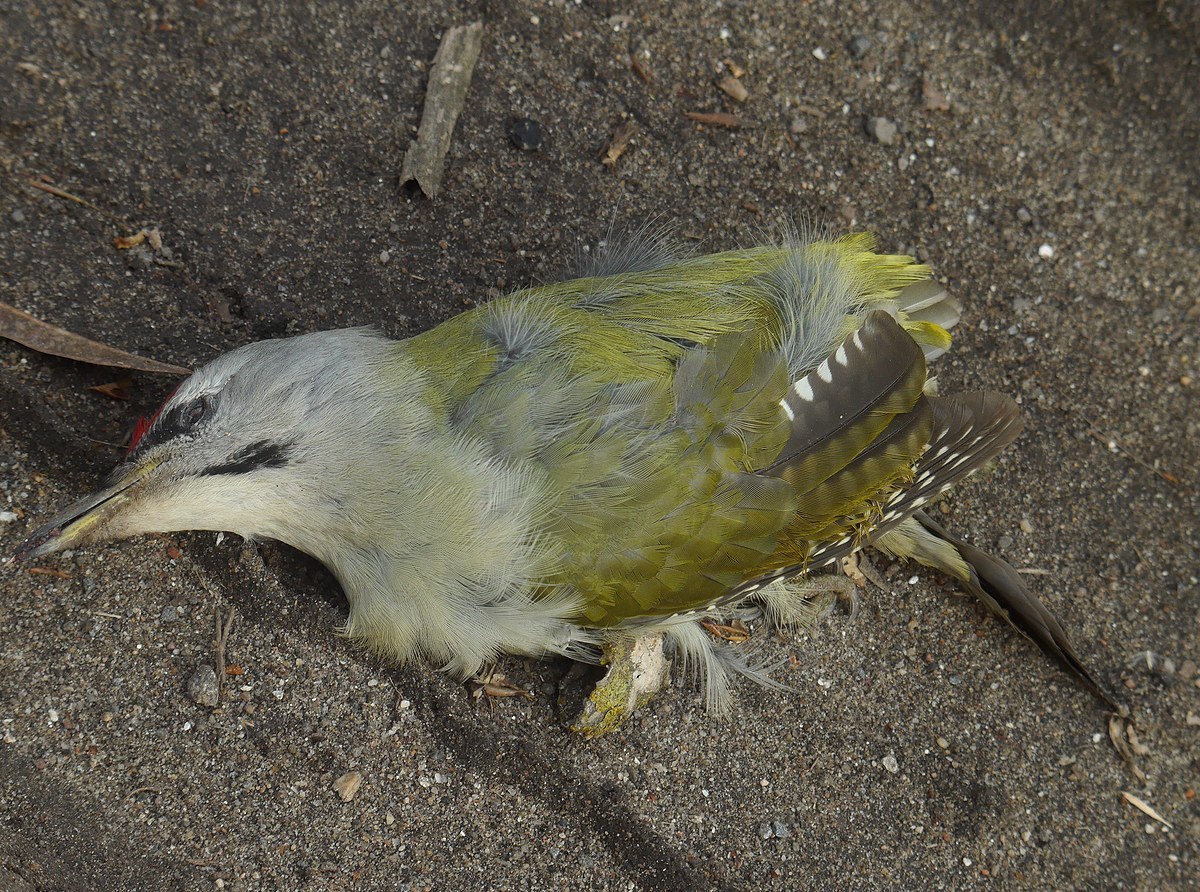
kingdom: Animalia
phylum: Chordata
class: Aves
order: Piciformes
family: Picidae
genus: Picus
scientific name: Picus canus
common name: Grey-headed woodpecker
